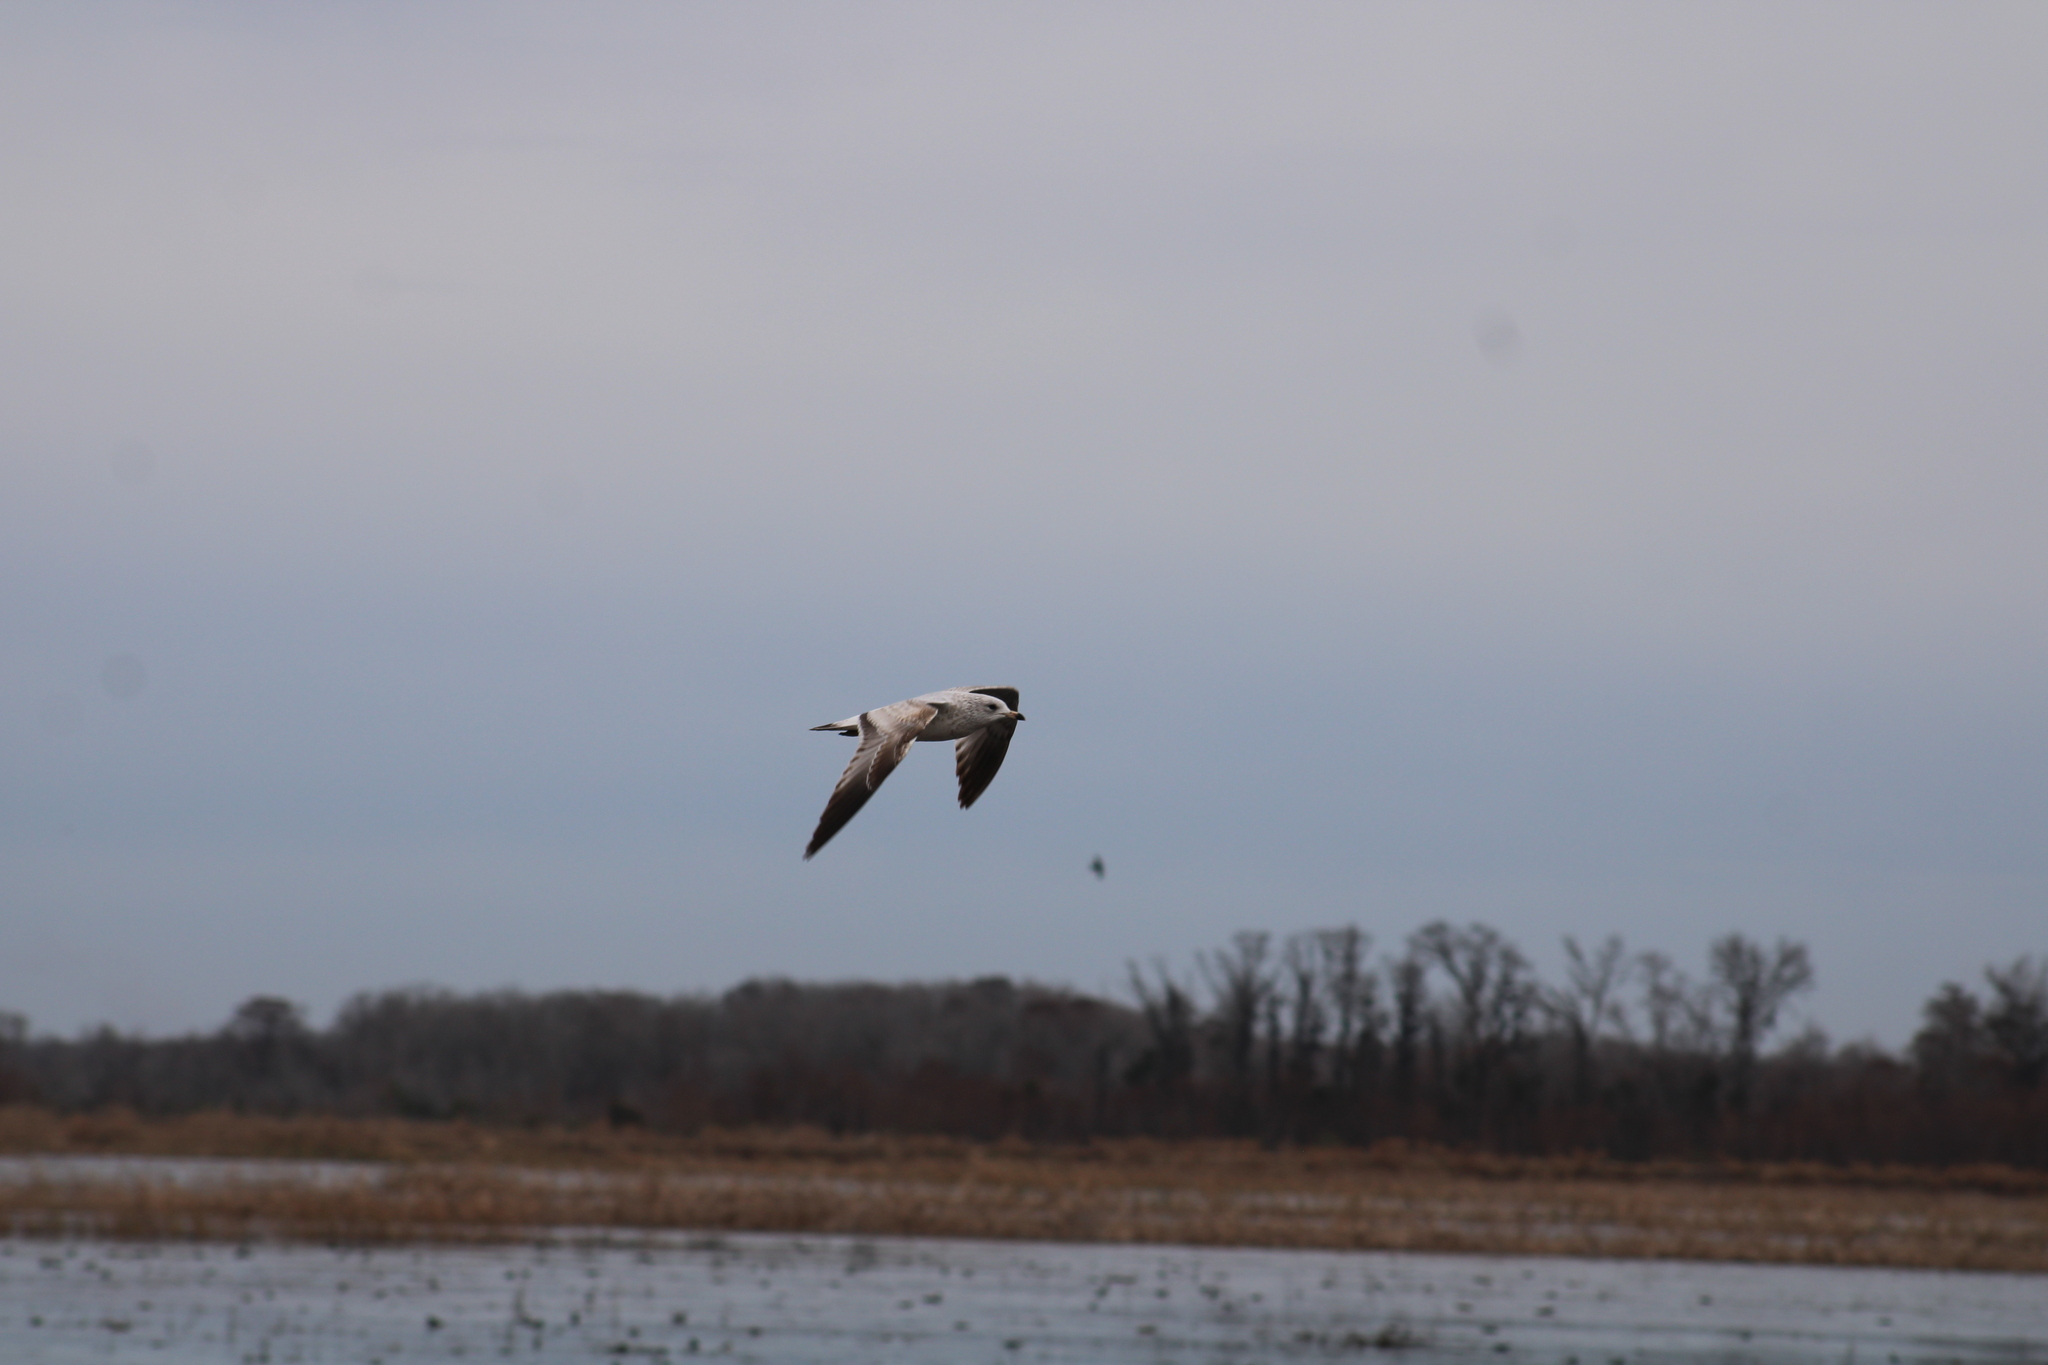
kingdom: Animalia
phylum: Chordata
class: Aves
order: Charadriiformes
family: Laridae
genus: Larus
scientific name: Larus delawarensis
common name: Ring-billed gull
